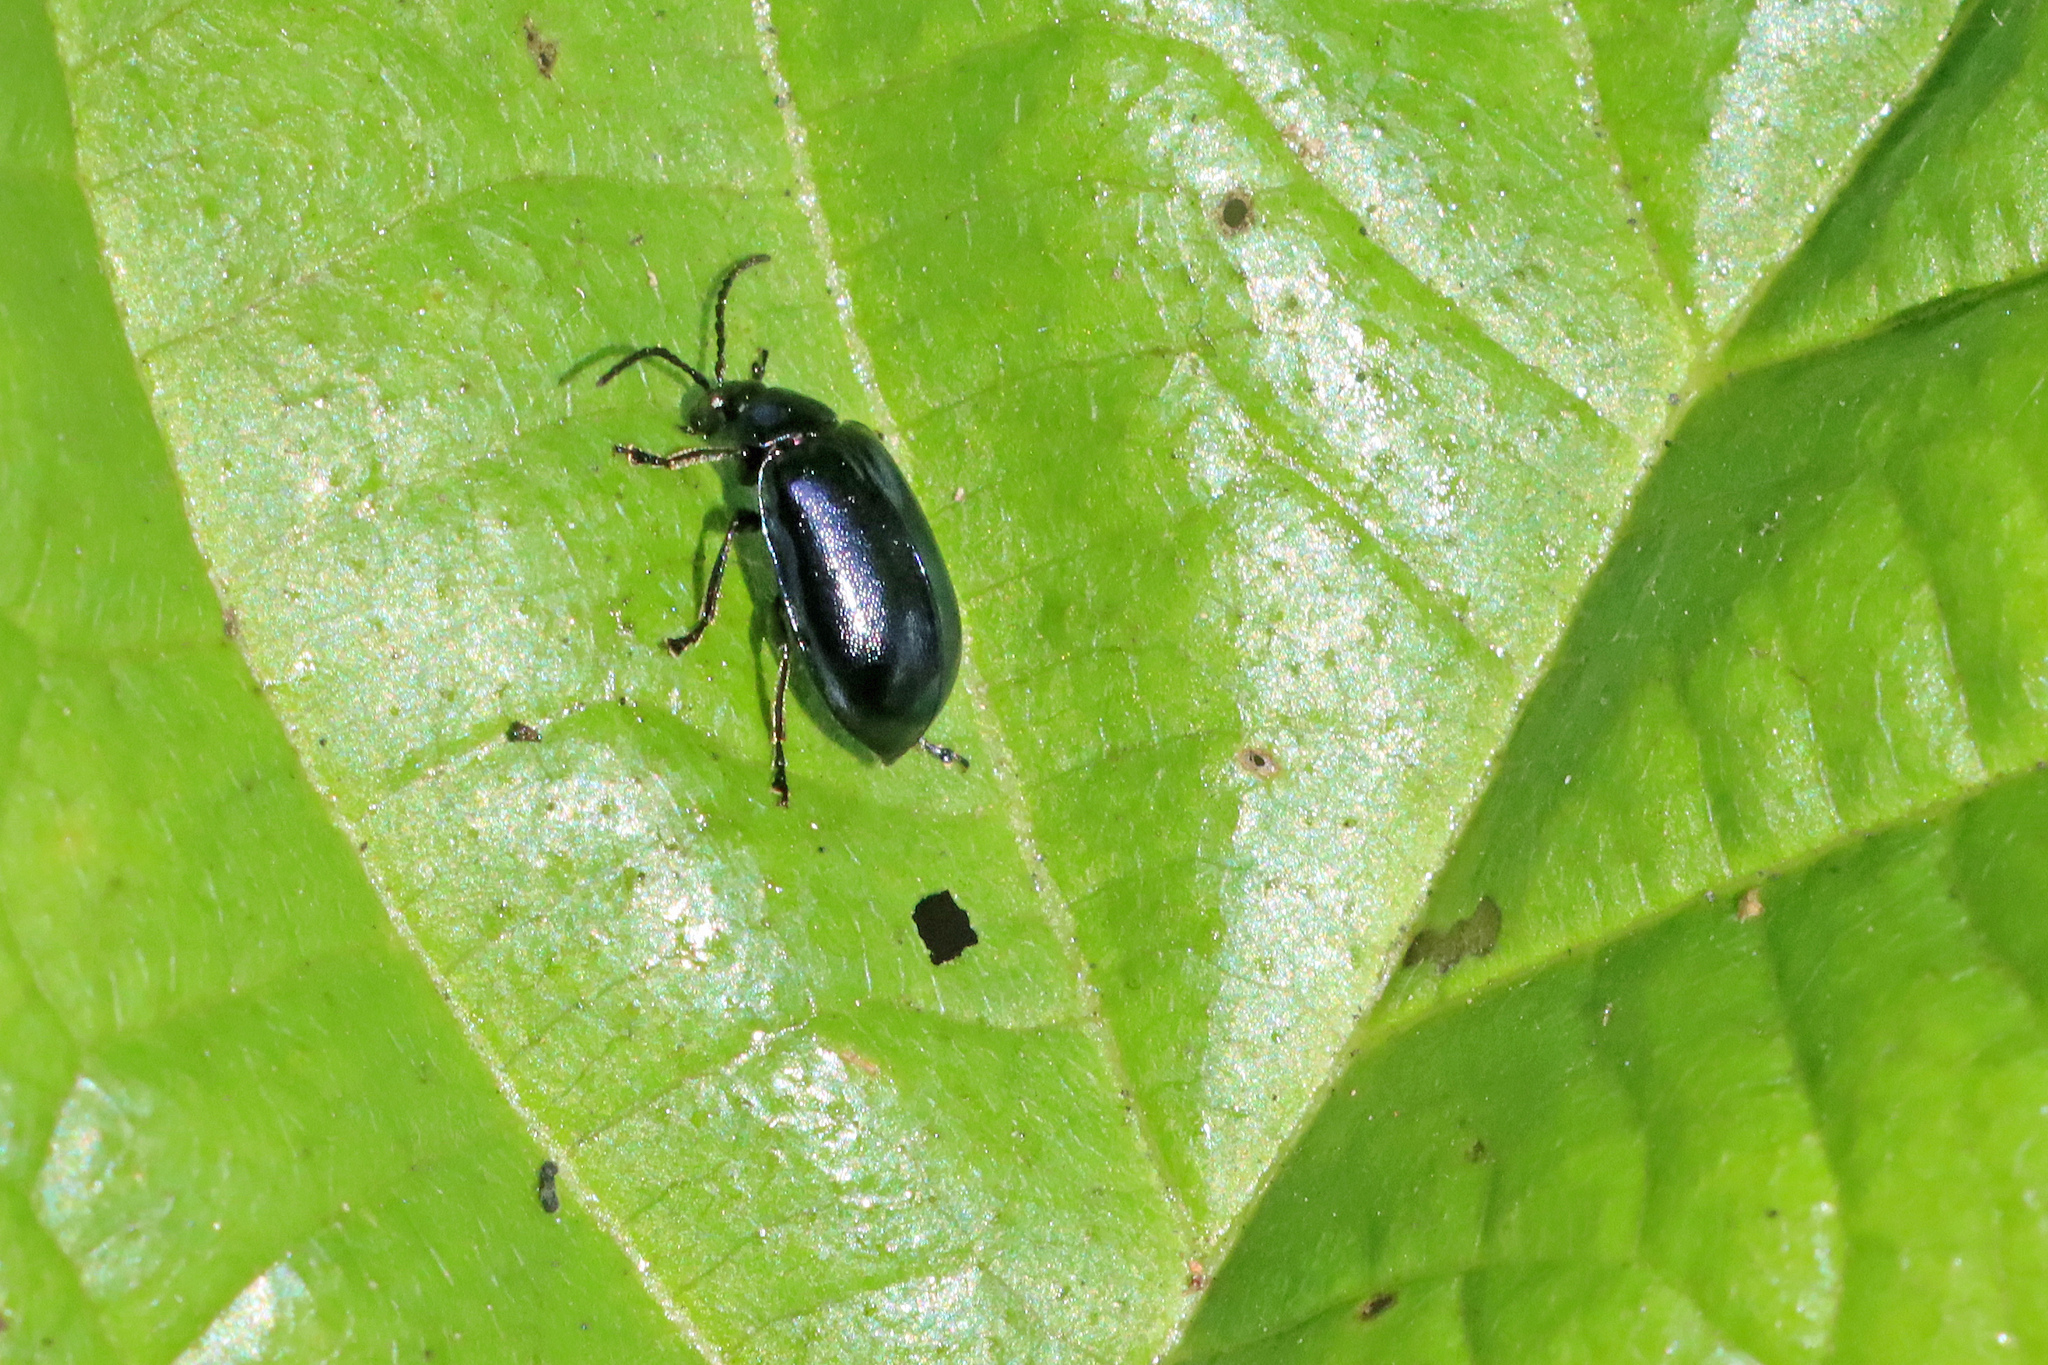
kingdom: Animalia
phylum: Arthropoda
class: Insecta
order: Coleoptera
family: Chrysomelidae
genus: Agelastica
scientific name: Agelastica alni
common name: Alder leaf beetle
